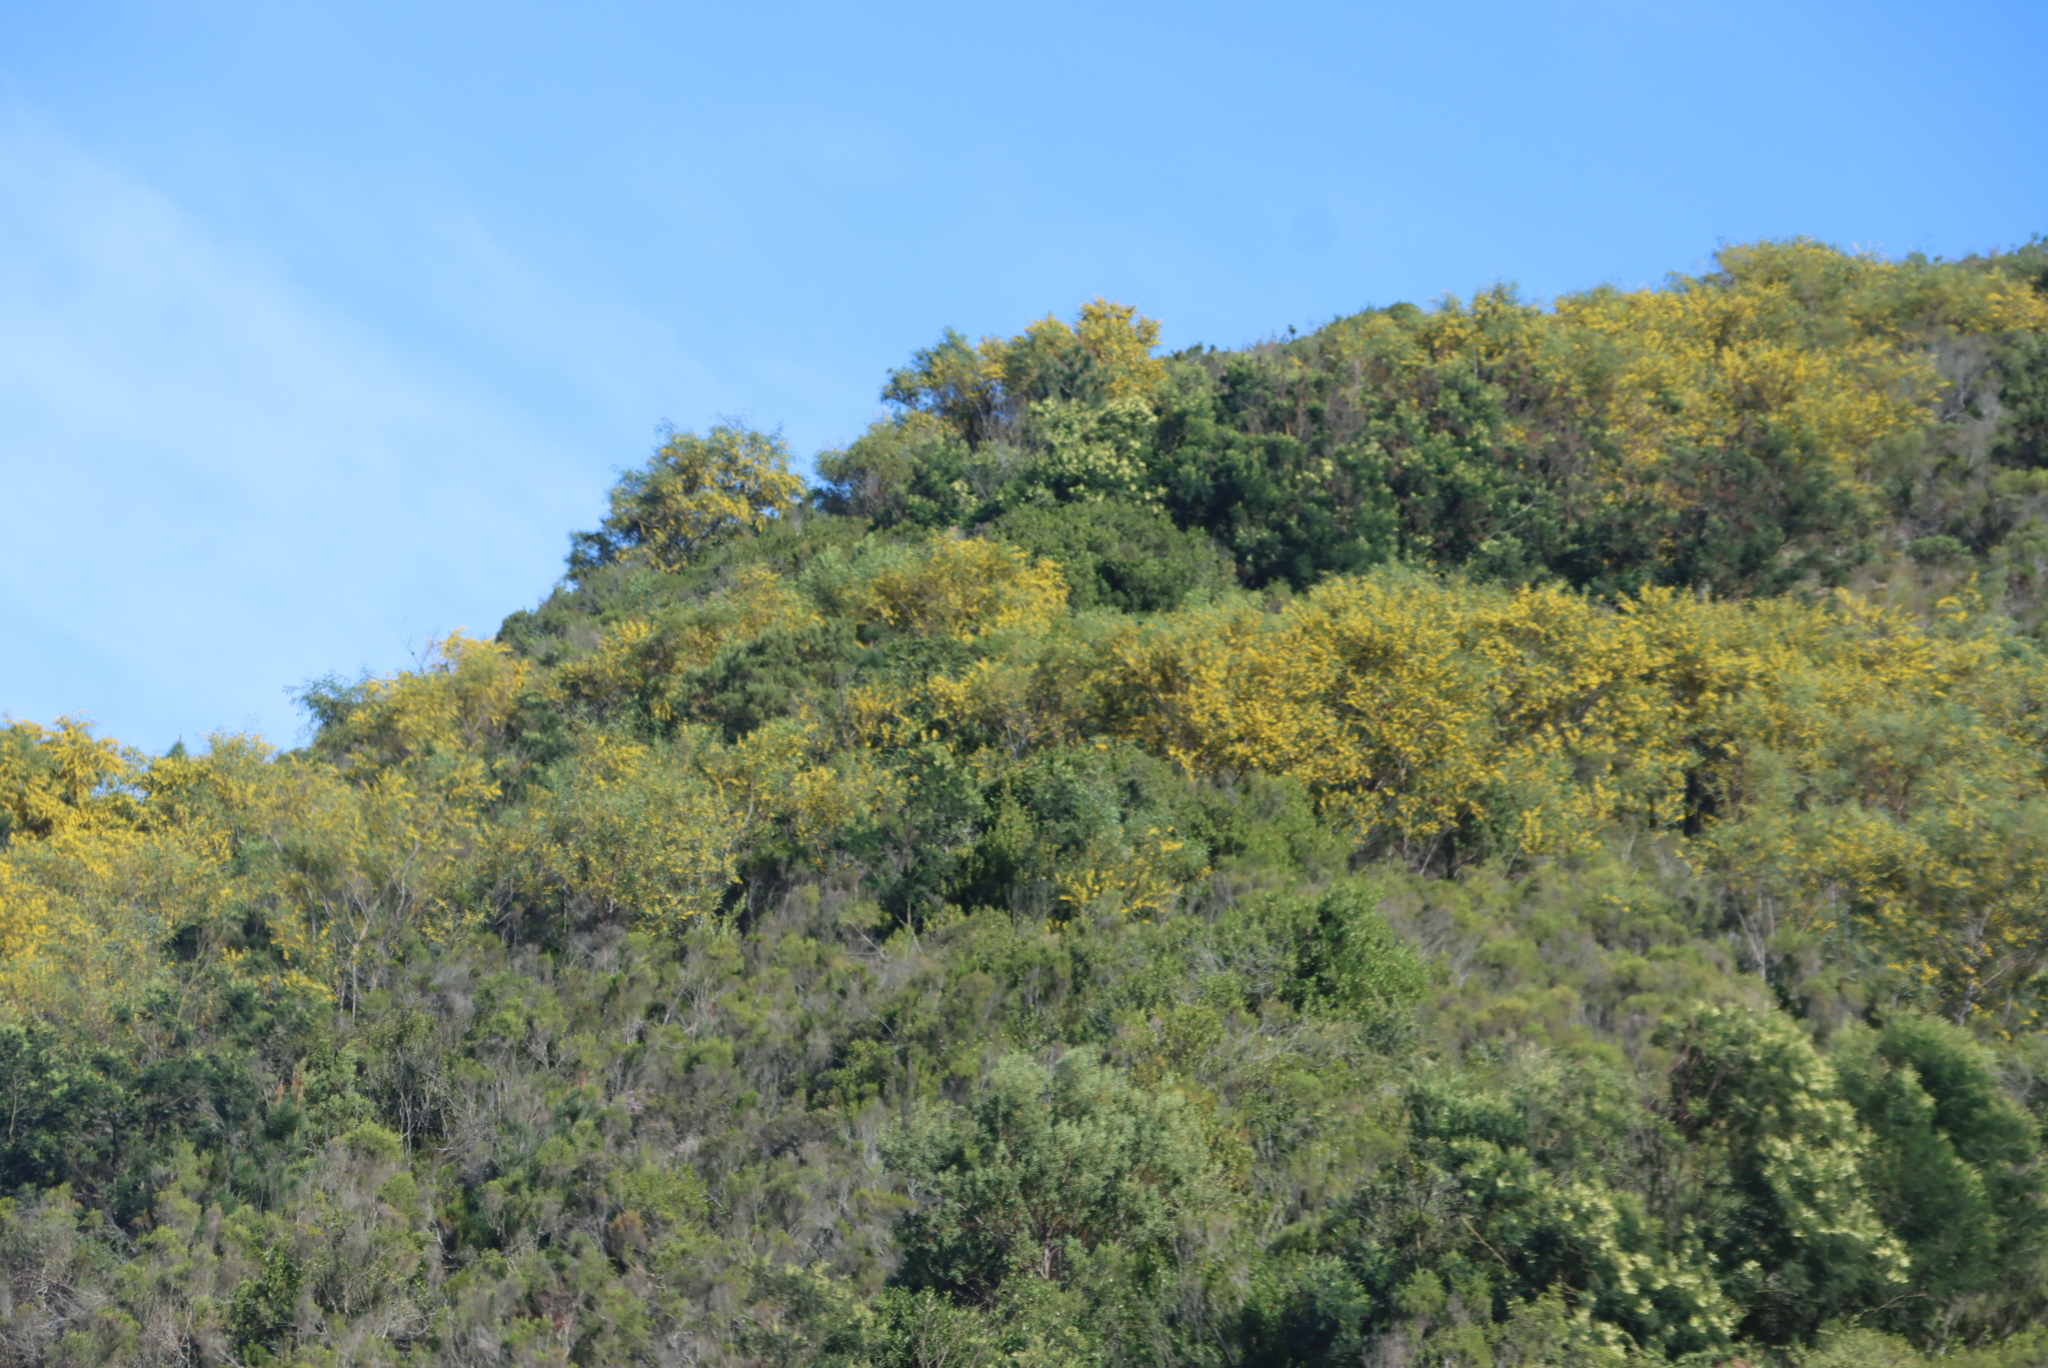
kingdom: Plantae
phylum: Tracheophyta
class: Magnoliopsida
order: Fabales
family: Fabaceae
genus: Acacia
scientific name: Acacia saligna
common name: Orange wattle
